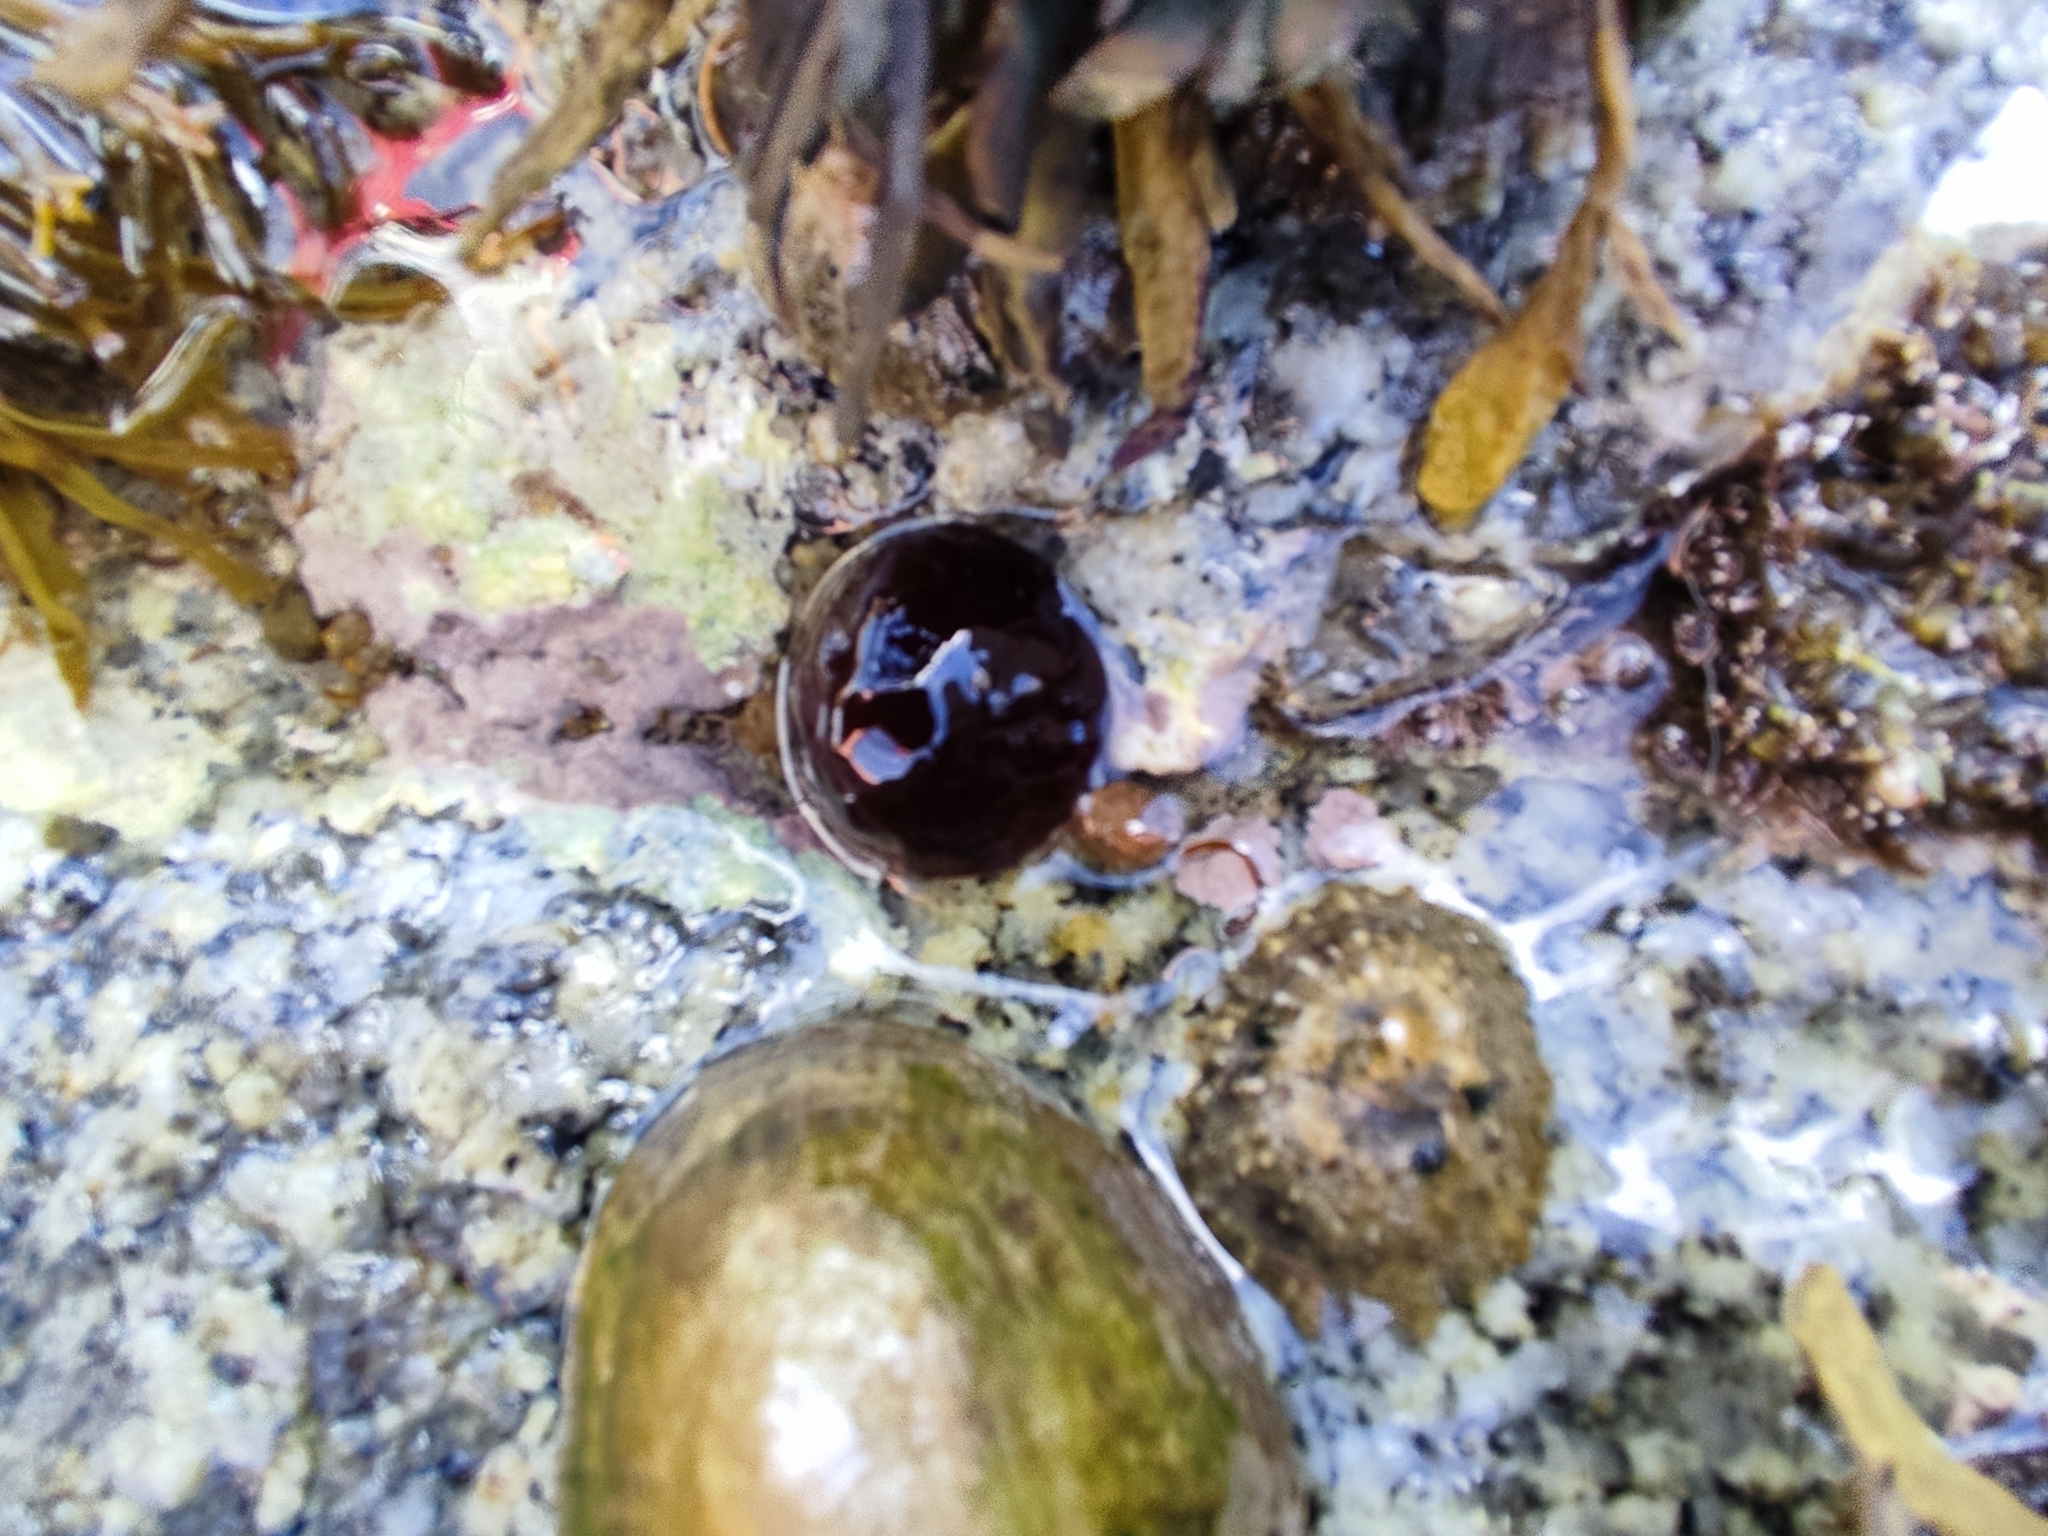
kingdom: Animalia
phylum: Cnidaria
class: Anthozoa
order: Actiniaria
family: Actiniidae
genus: Actinia
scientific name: Actinia equina
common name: Beadlet anemone
